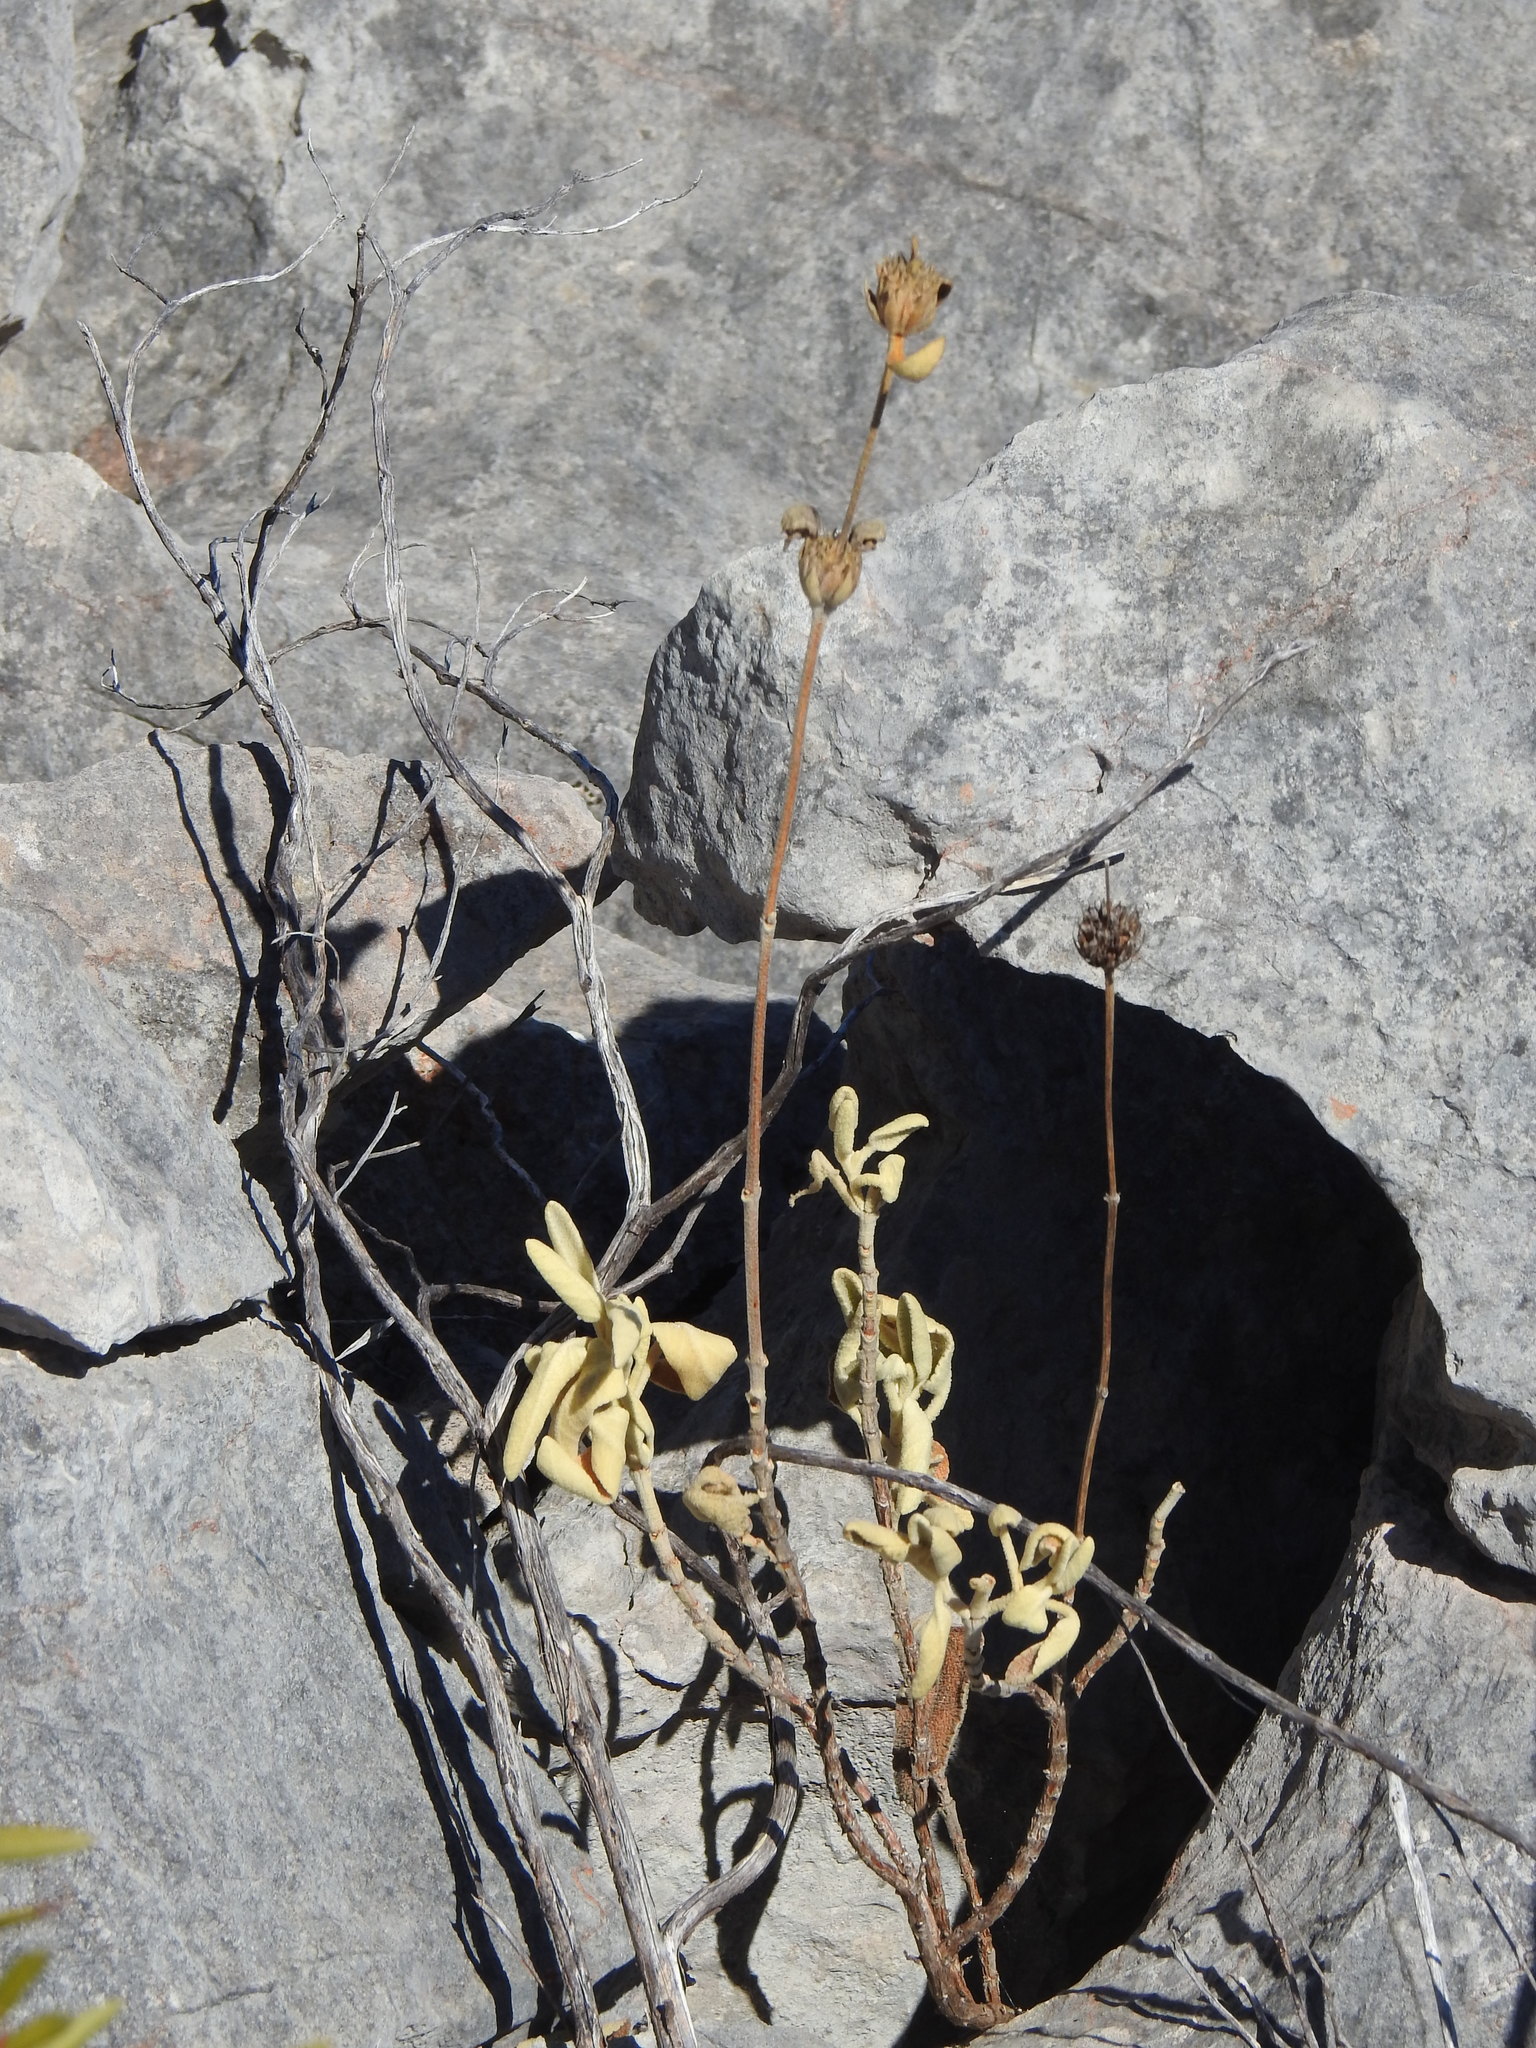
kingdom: Plantae
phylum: Tracheophyta
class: Magnoliopsida
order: Lamiales
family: Lamiaceae
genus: Phlomis
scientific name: Phlomis purpurea
